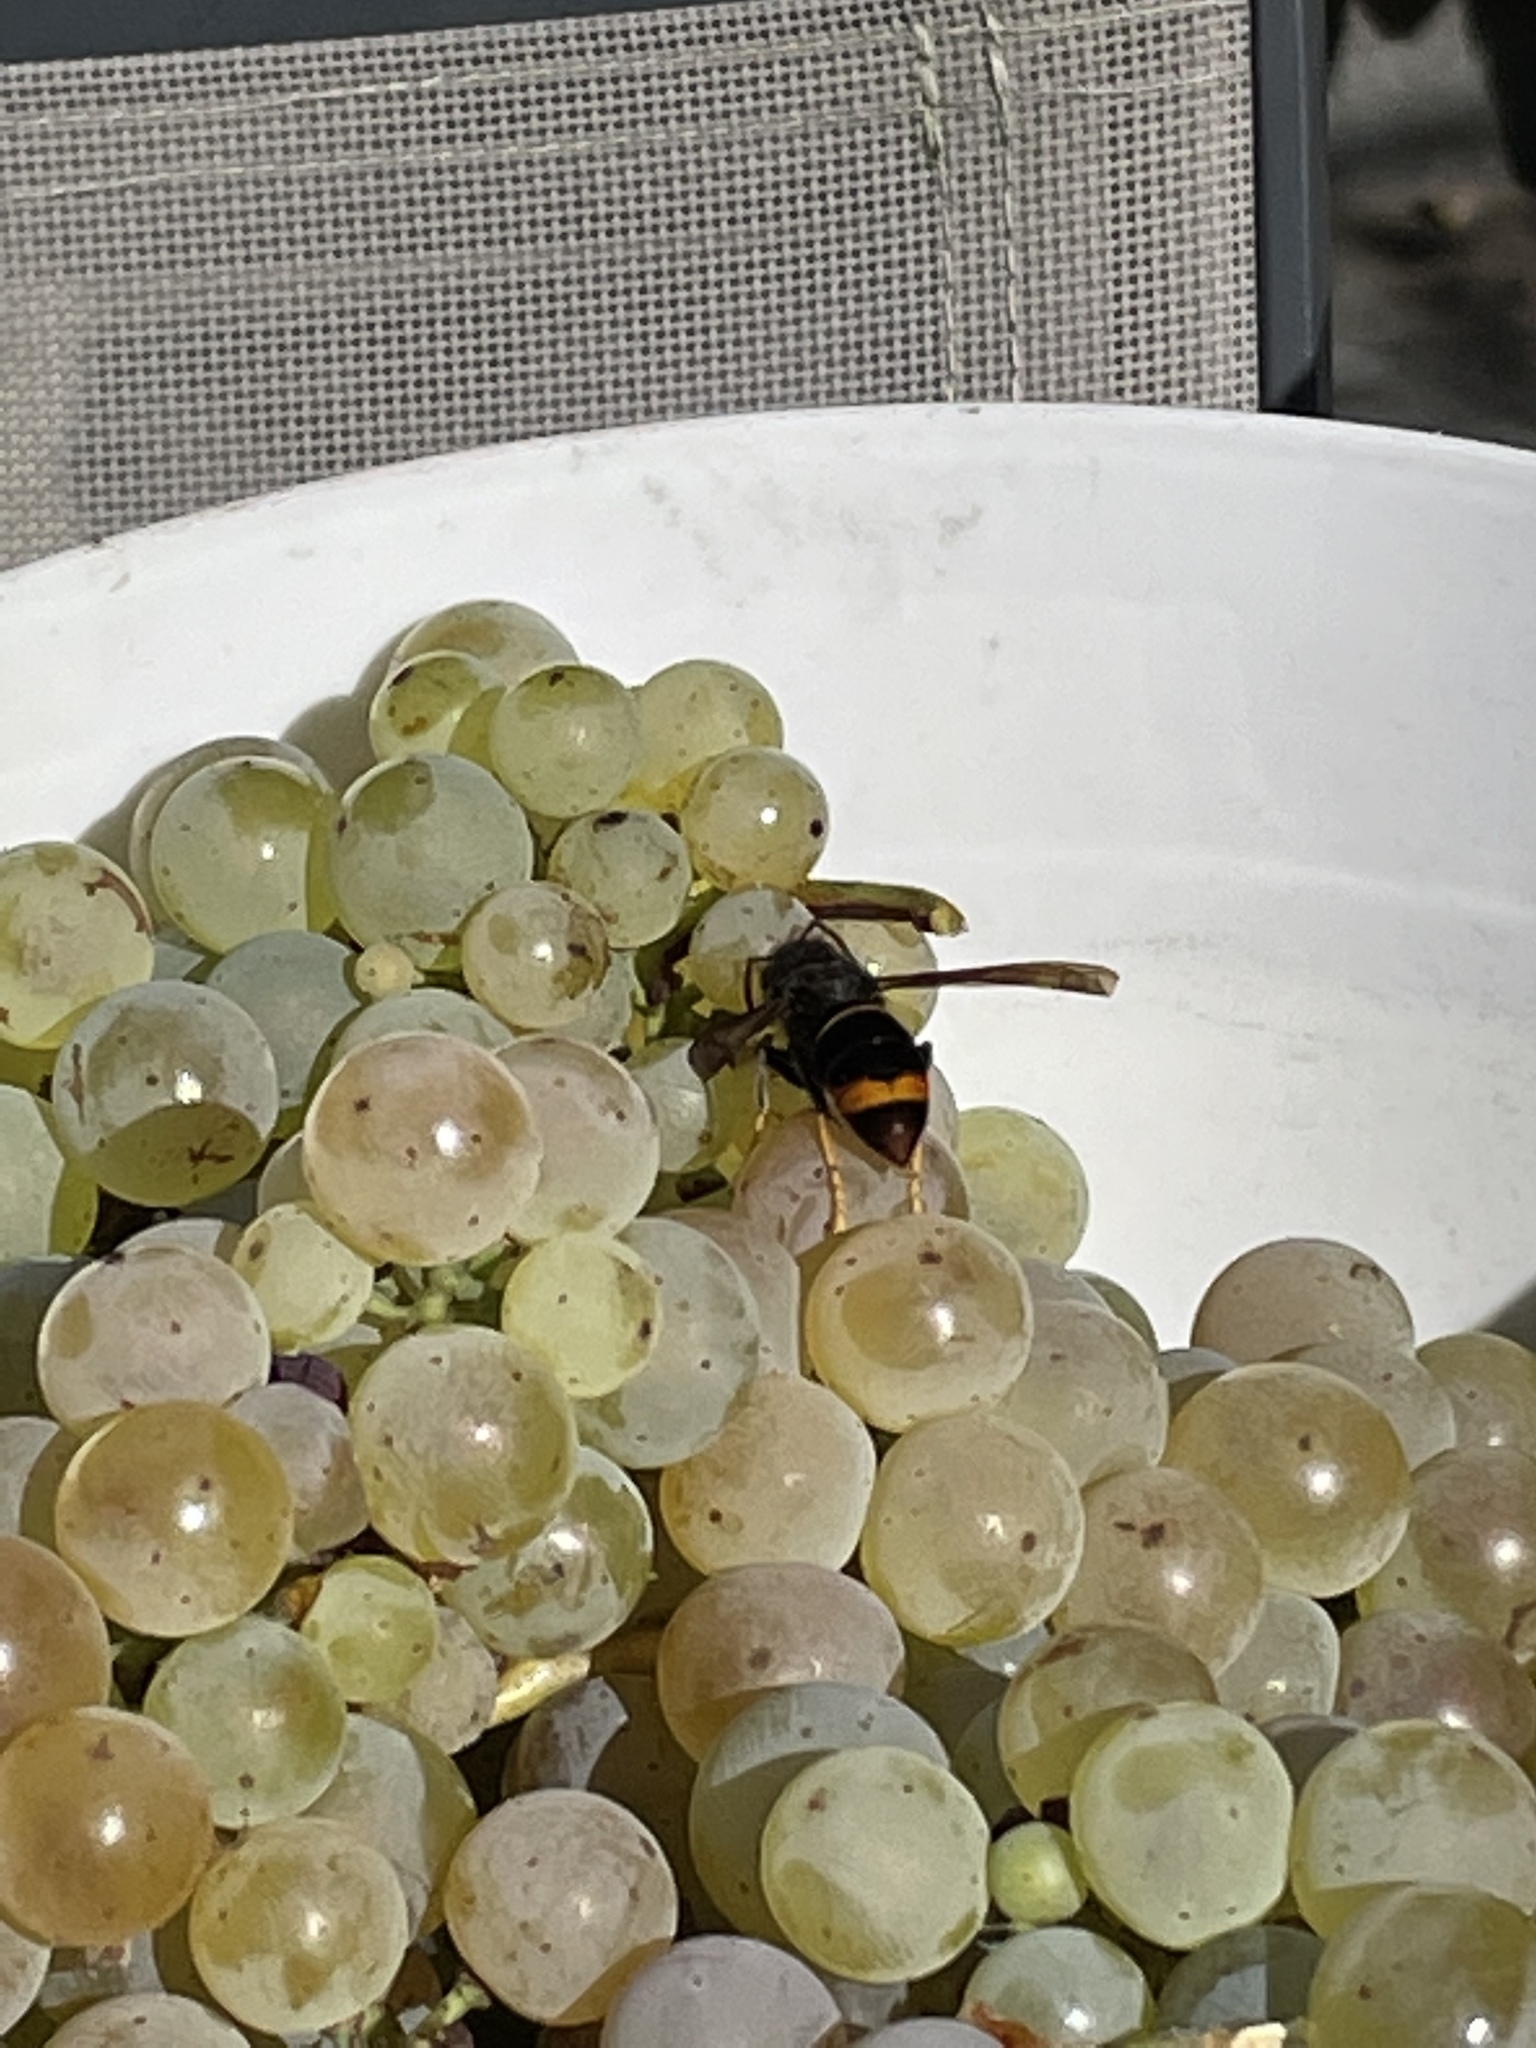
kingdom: Animalia
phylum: Arthropoda
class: Insecta
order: Hymenoptera
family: Vespidae
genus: Vespa
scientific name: Vespa velutina
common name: Asian hornet
